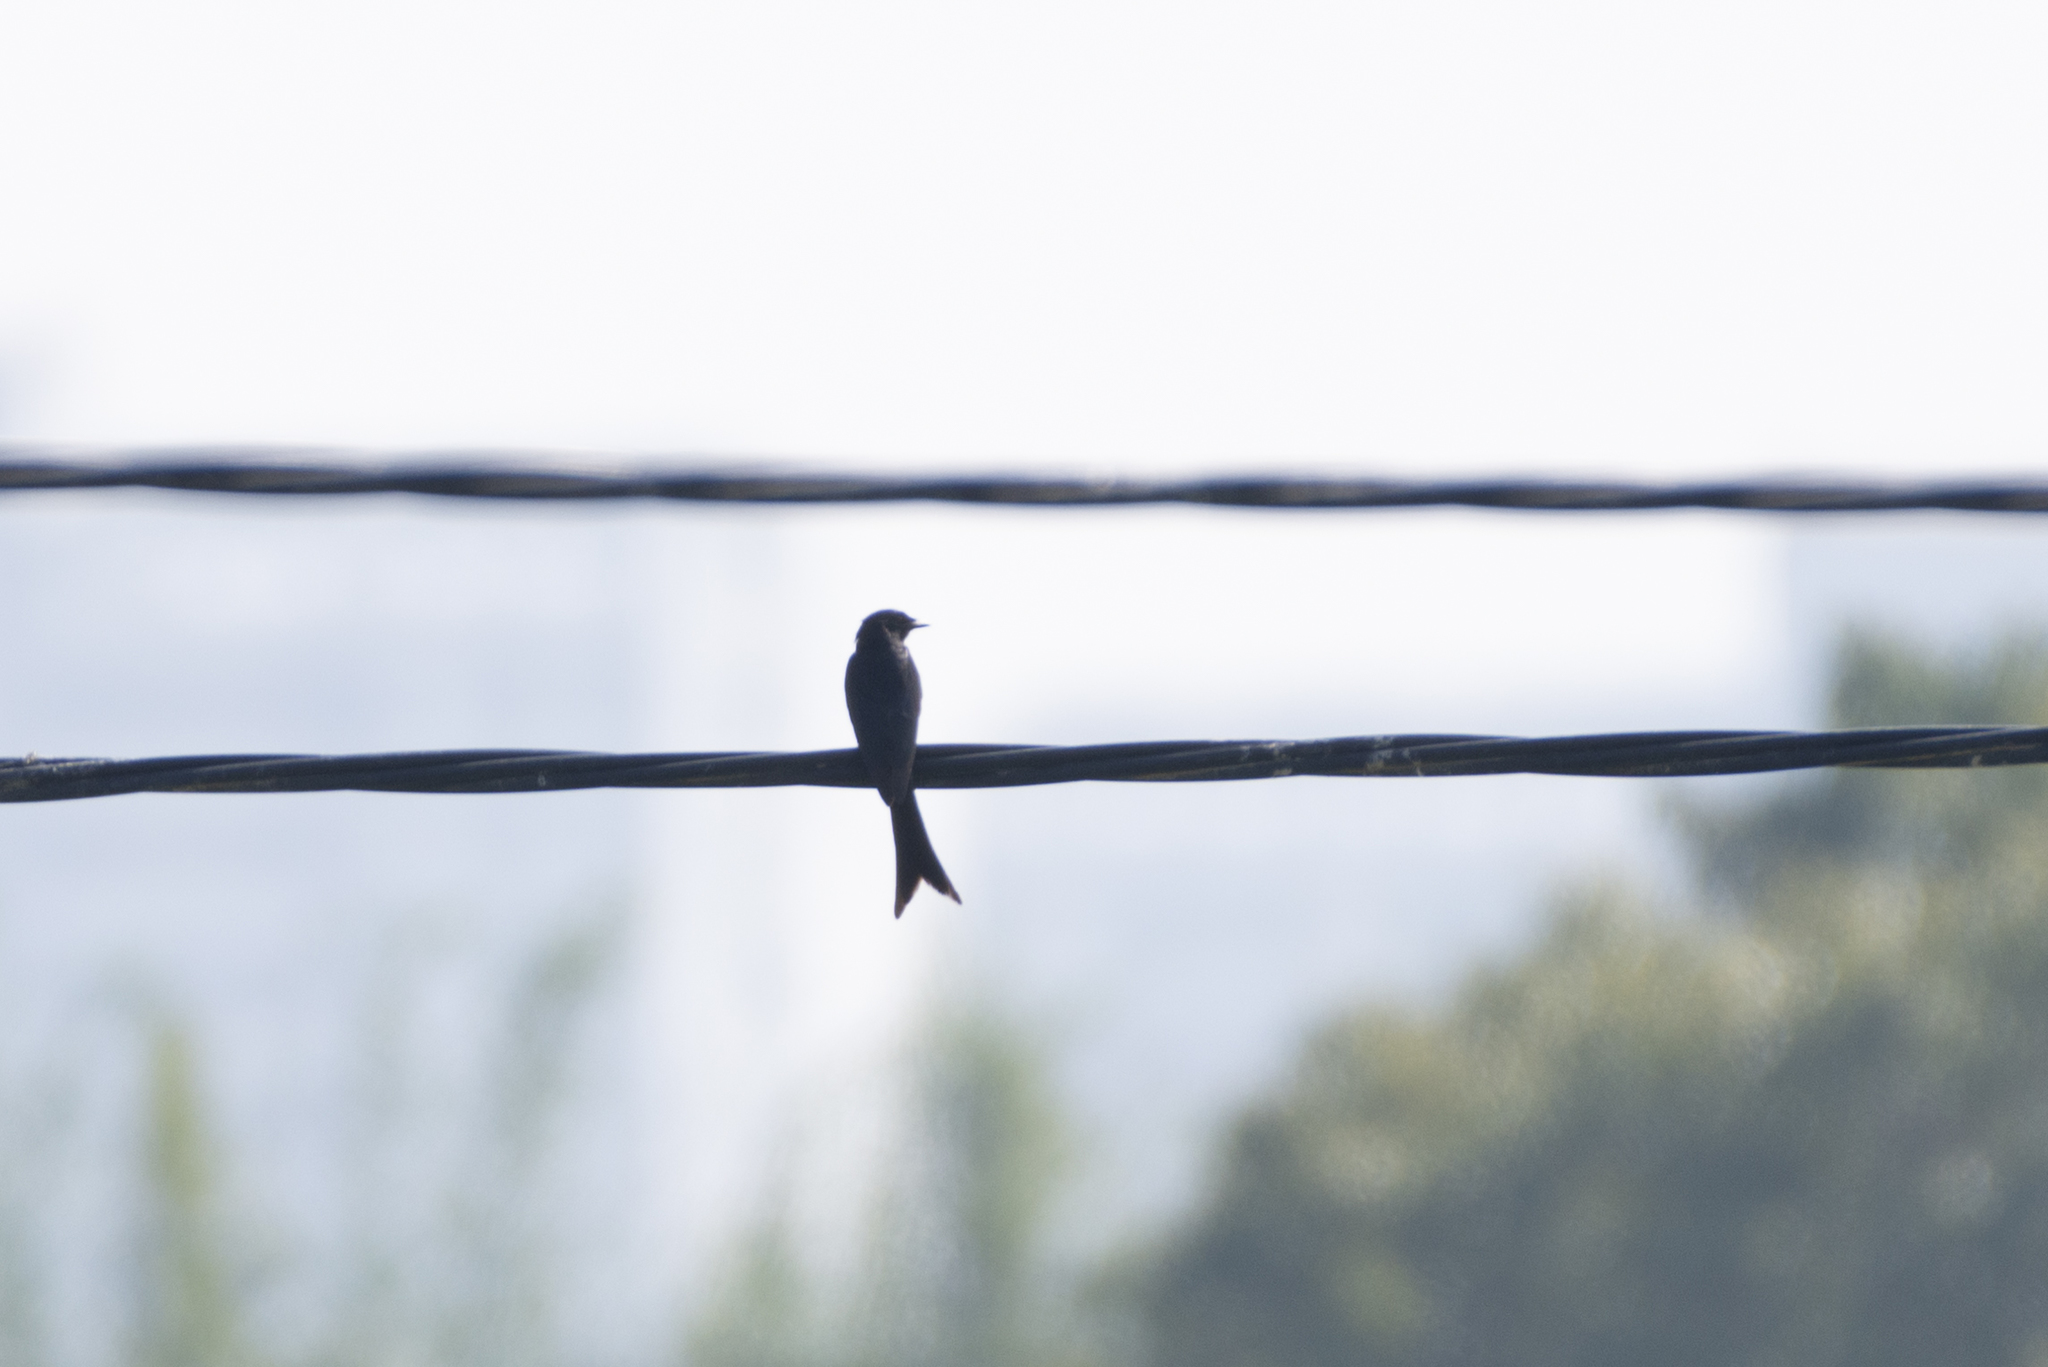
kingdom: Animalia
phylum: Chordata
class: Aves
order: Passeriformes
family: Dicruridae
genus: Dicrurus
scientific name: Dicrurus macrocercus
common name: Black drongo
